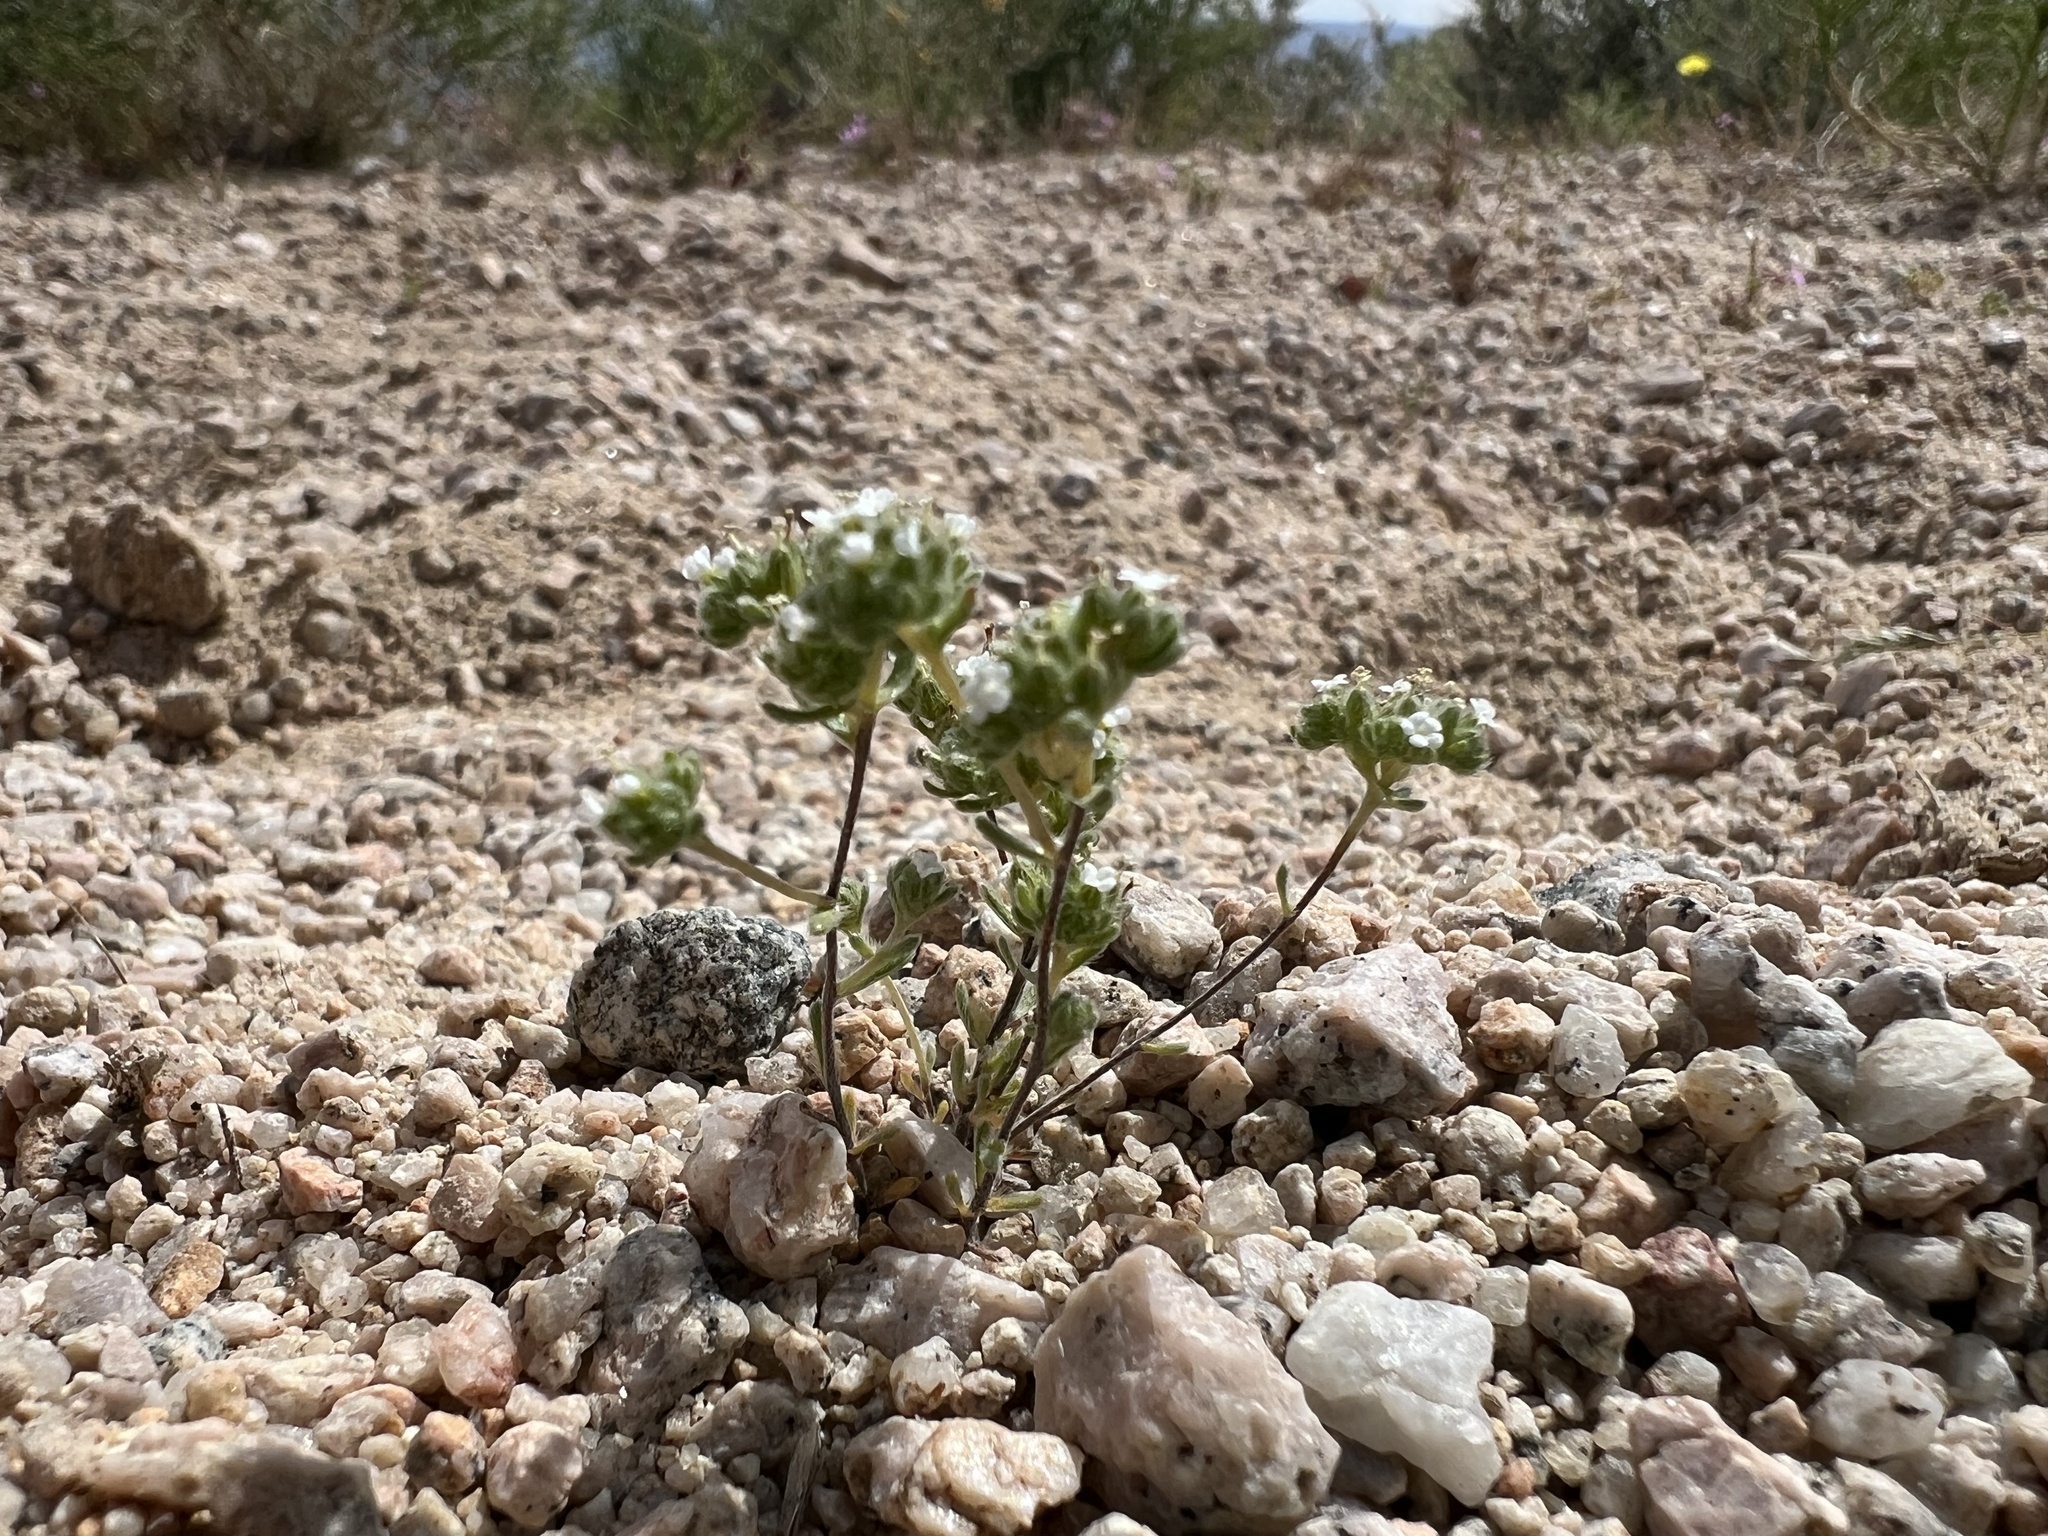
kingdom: Plantae
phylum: Tracheophyta
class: Magnoliopsida
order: Boraginales
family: Boraginaceae
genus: Eremocarya
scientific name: Eremocarya micrantha
